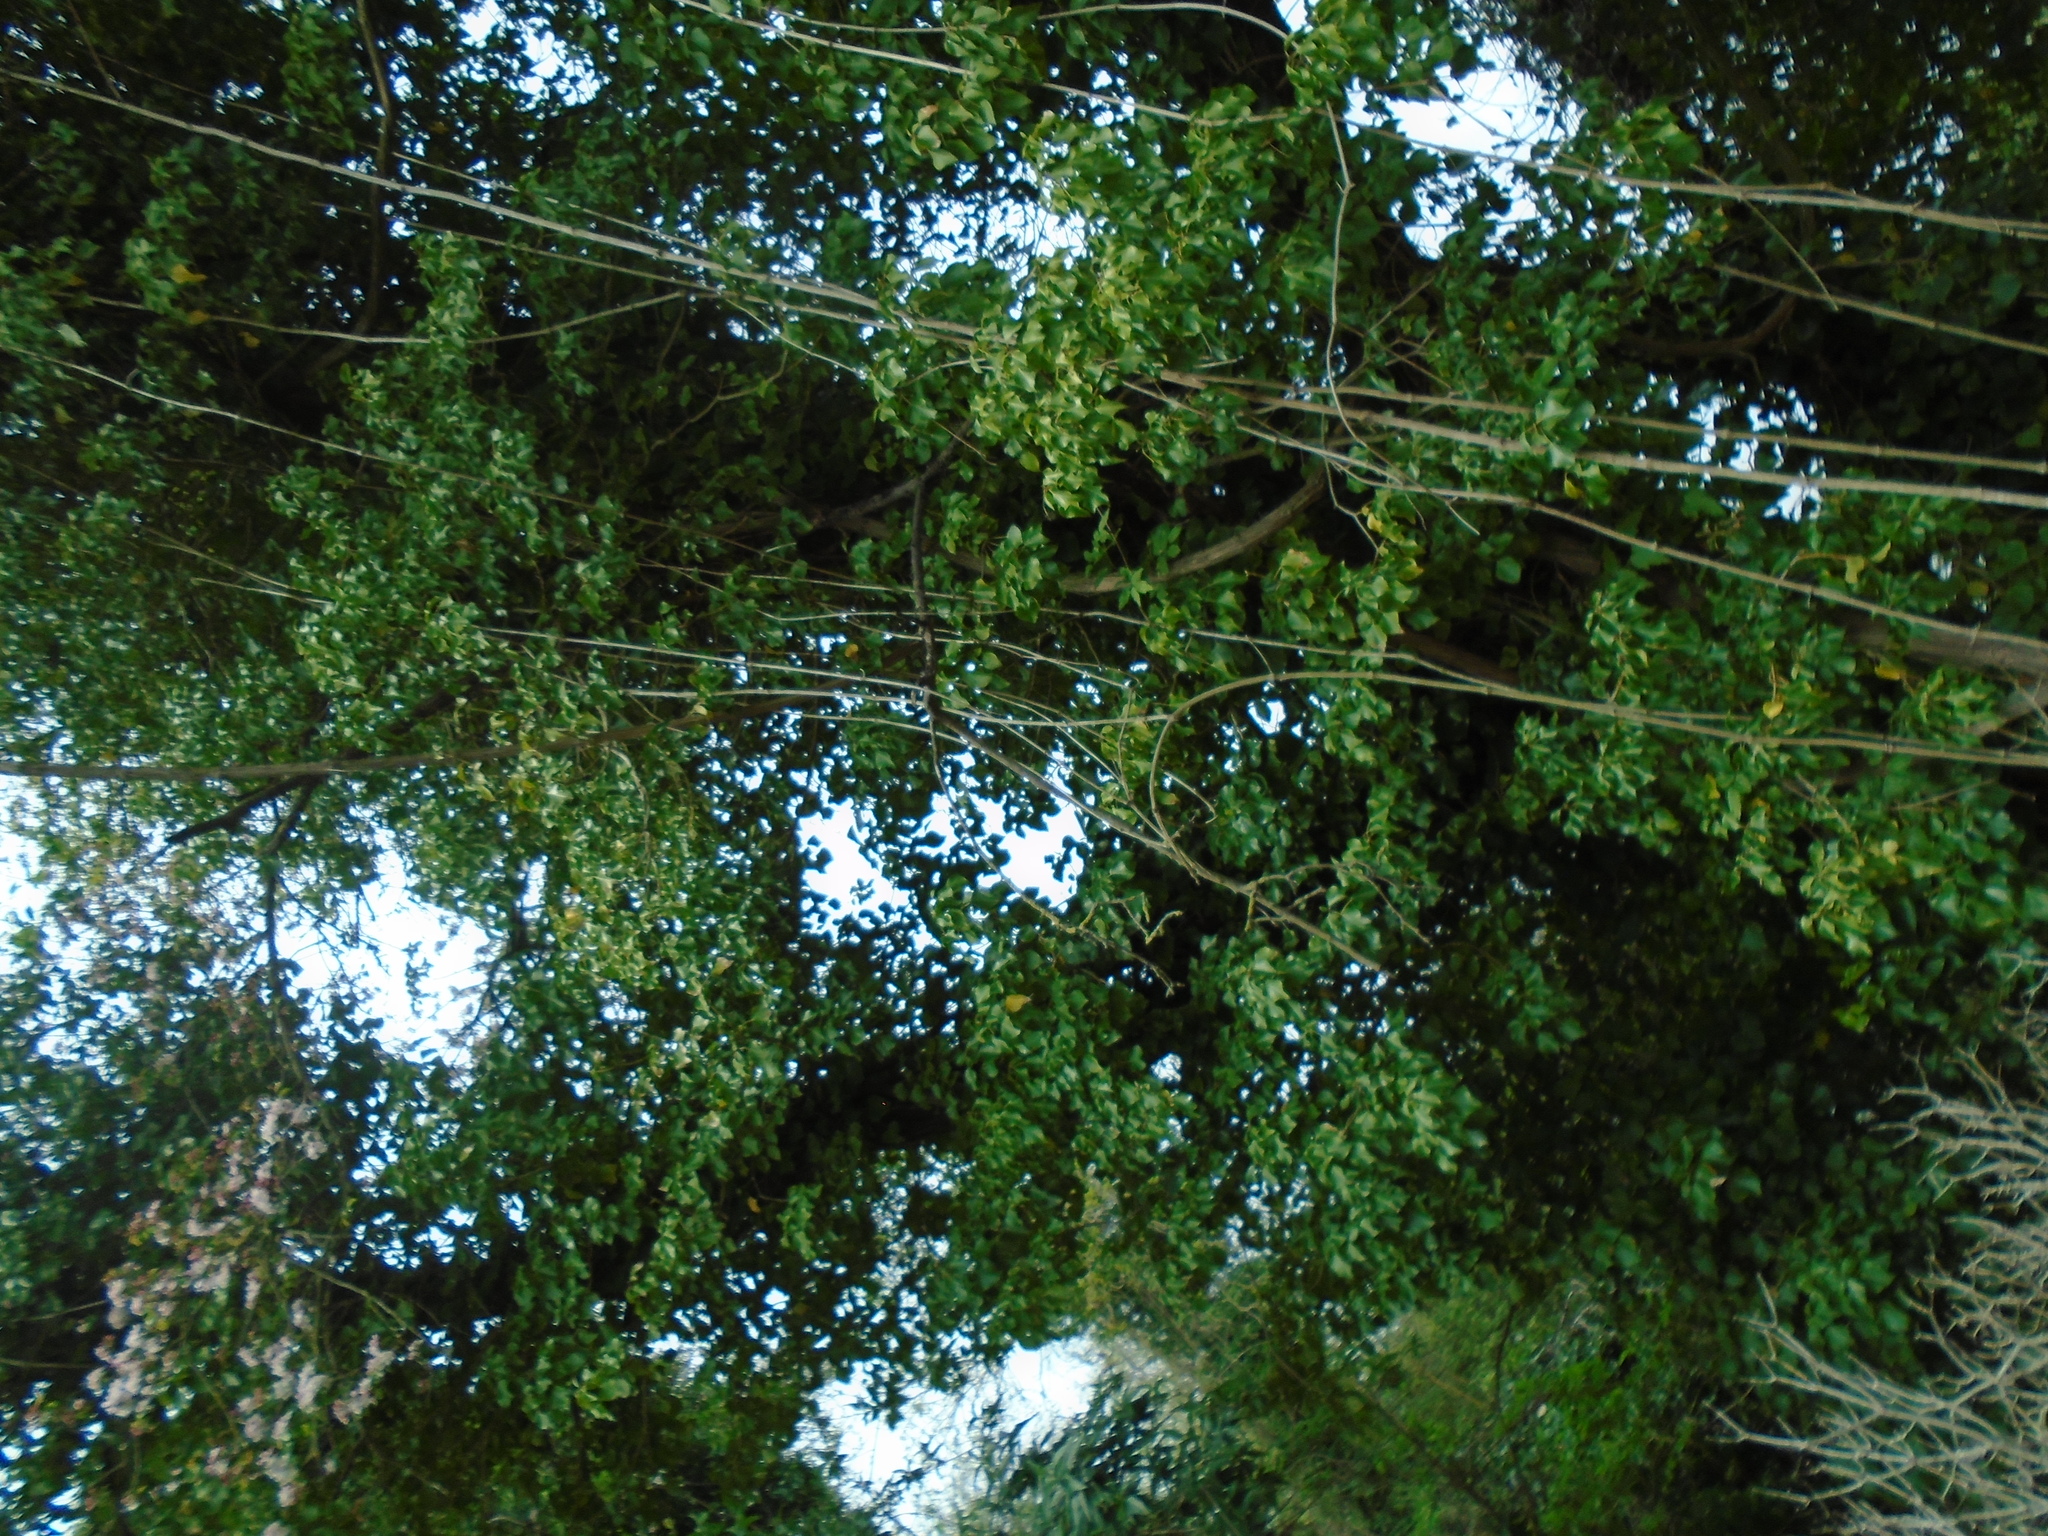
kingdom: Plantae
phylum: Tracheophyta
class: Magnoliopsida
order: Ranunculales
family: Ranunculaceae
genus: Clematis
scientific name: Clematis vitalba
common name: Evergreen clematis
